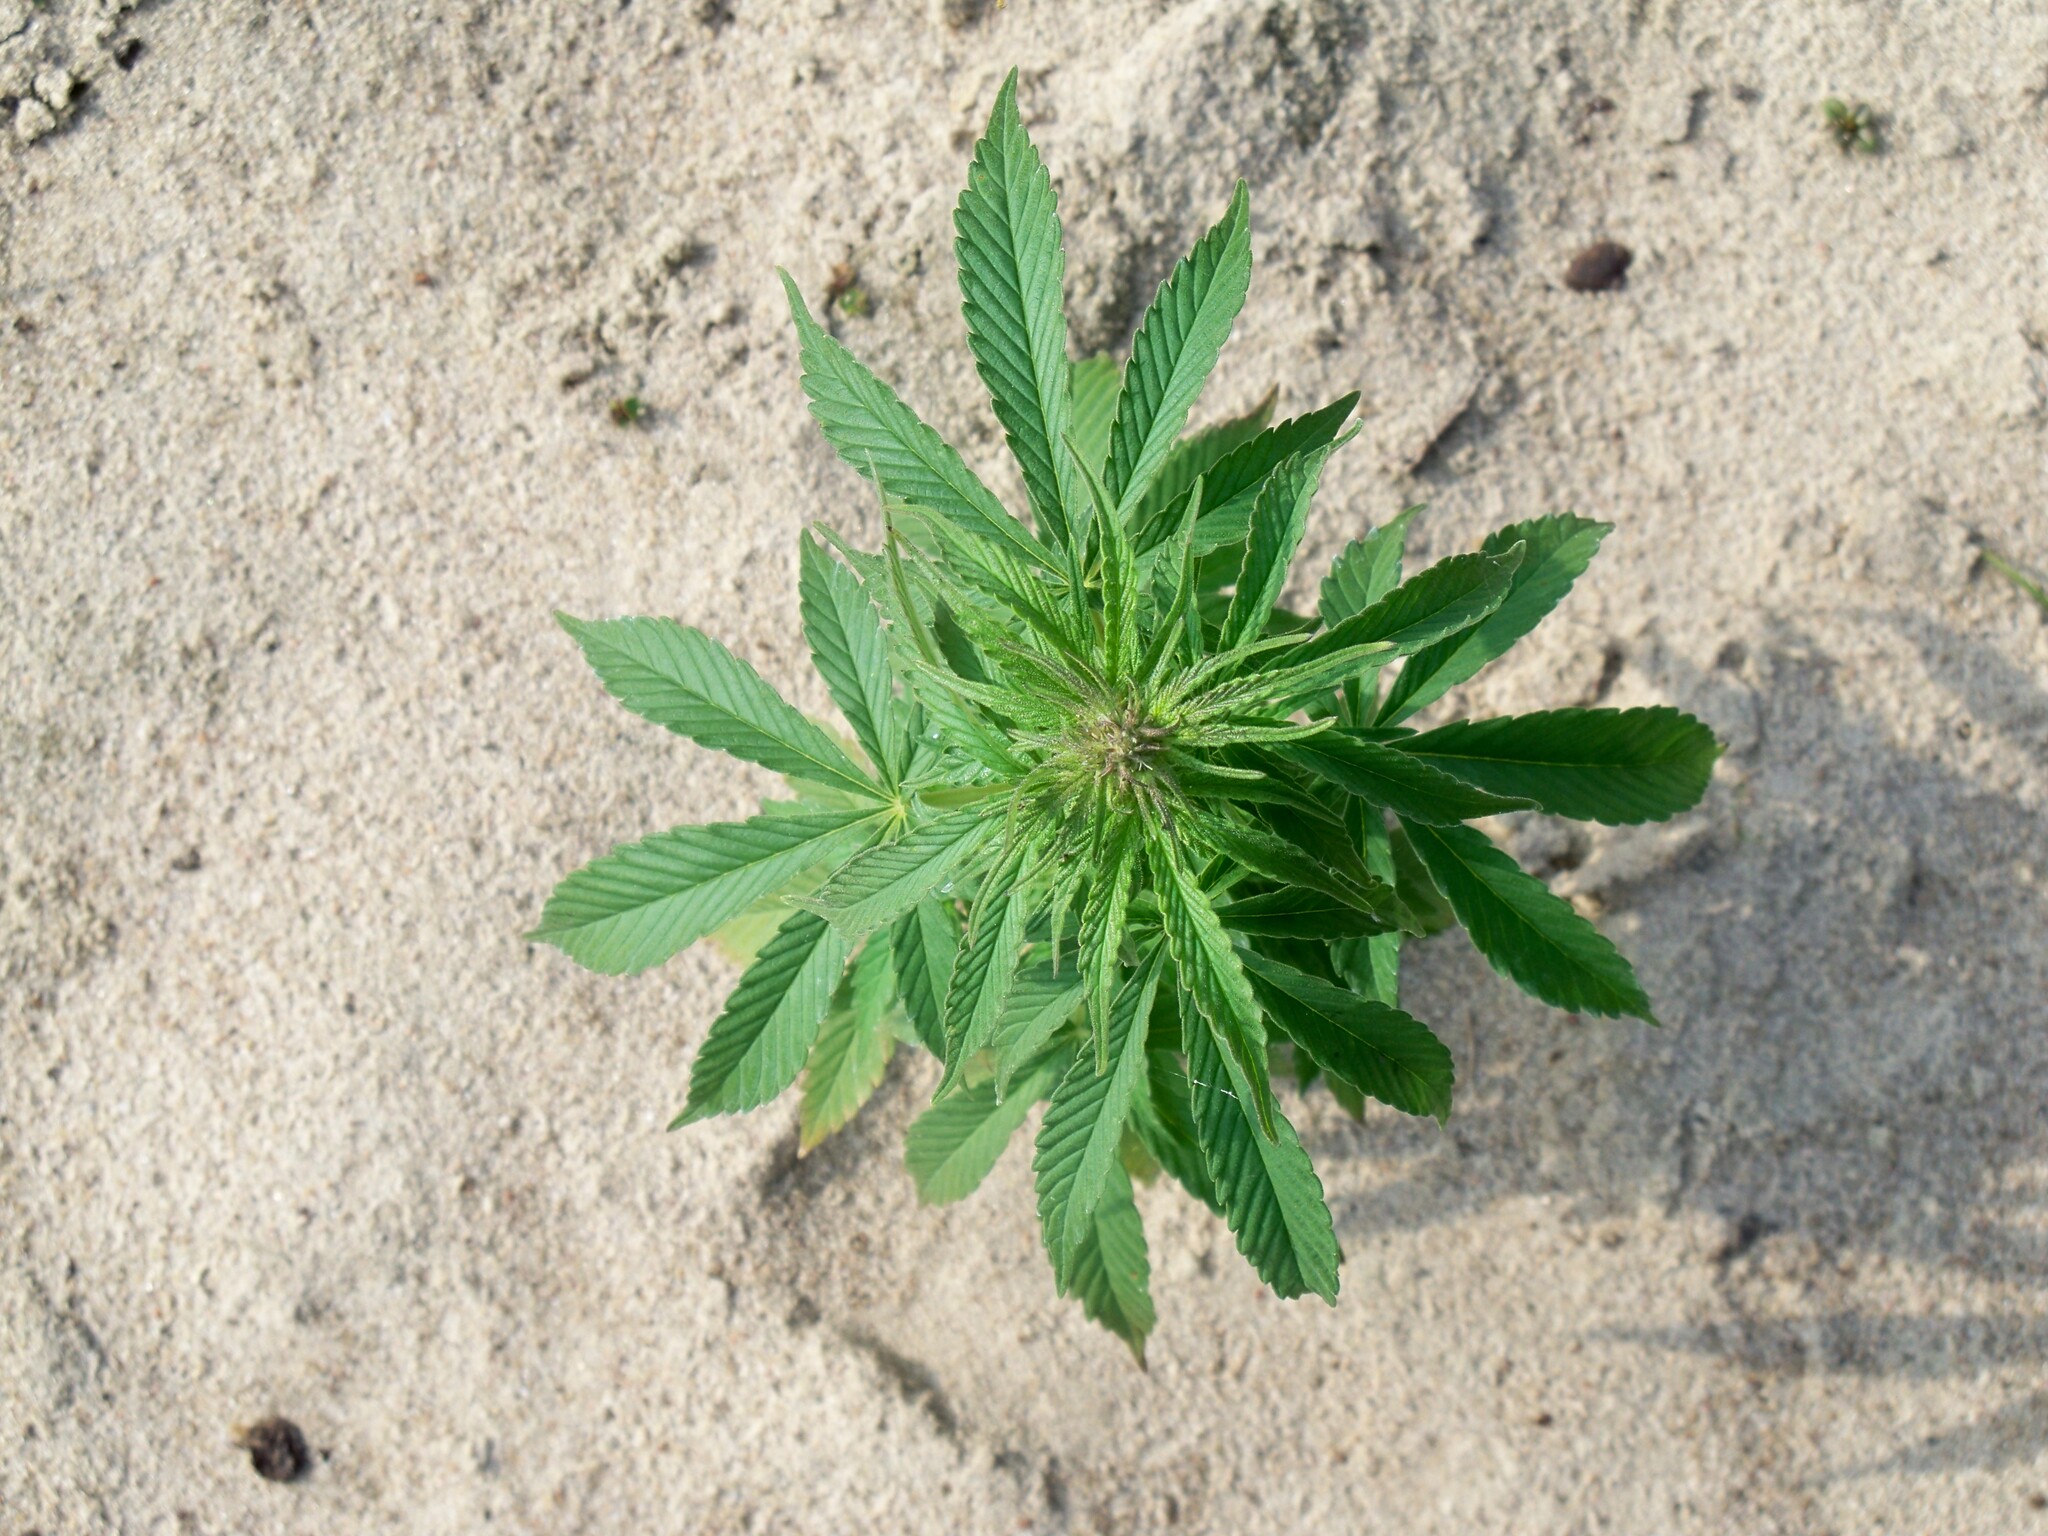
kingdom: Plantae
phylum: Tracheophyta
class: Magnoliopsida
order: Rosales
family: Cannabaceae
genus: Cannabis
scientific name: Cannabis sativa
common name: Hemp
